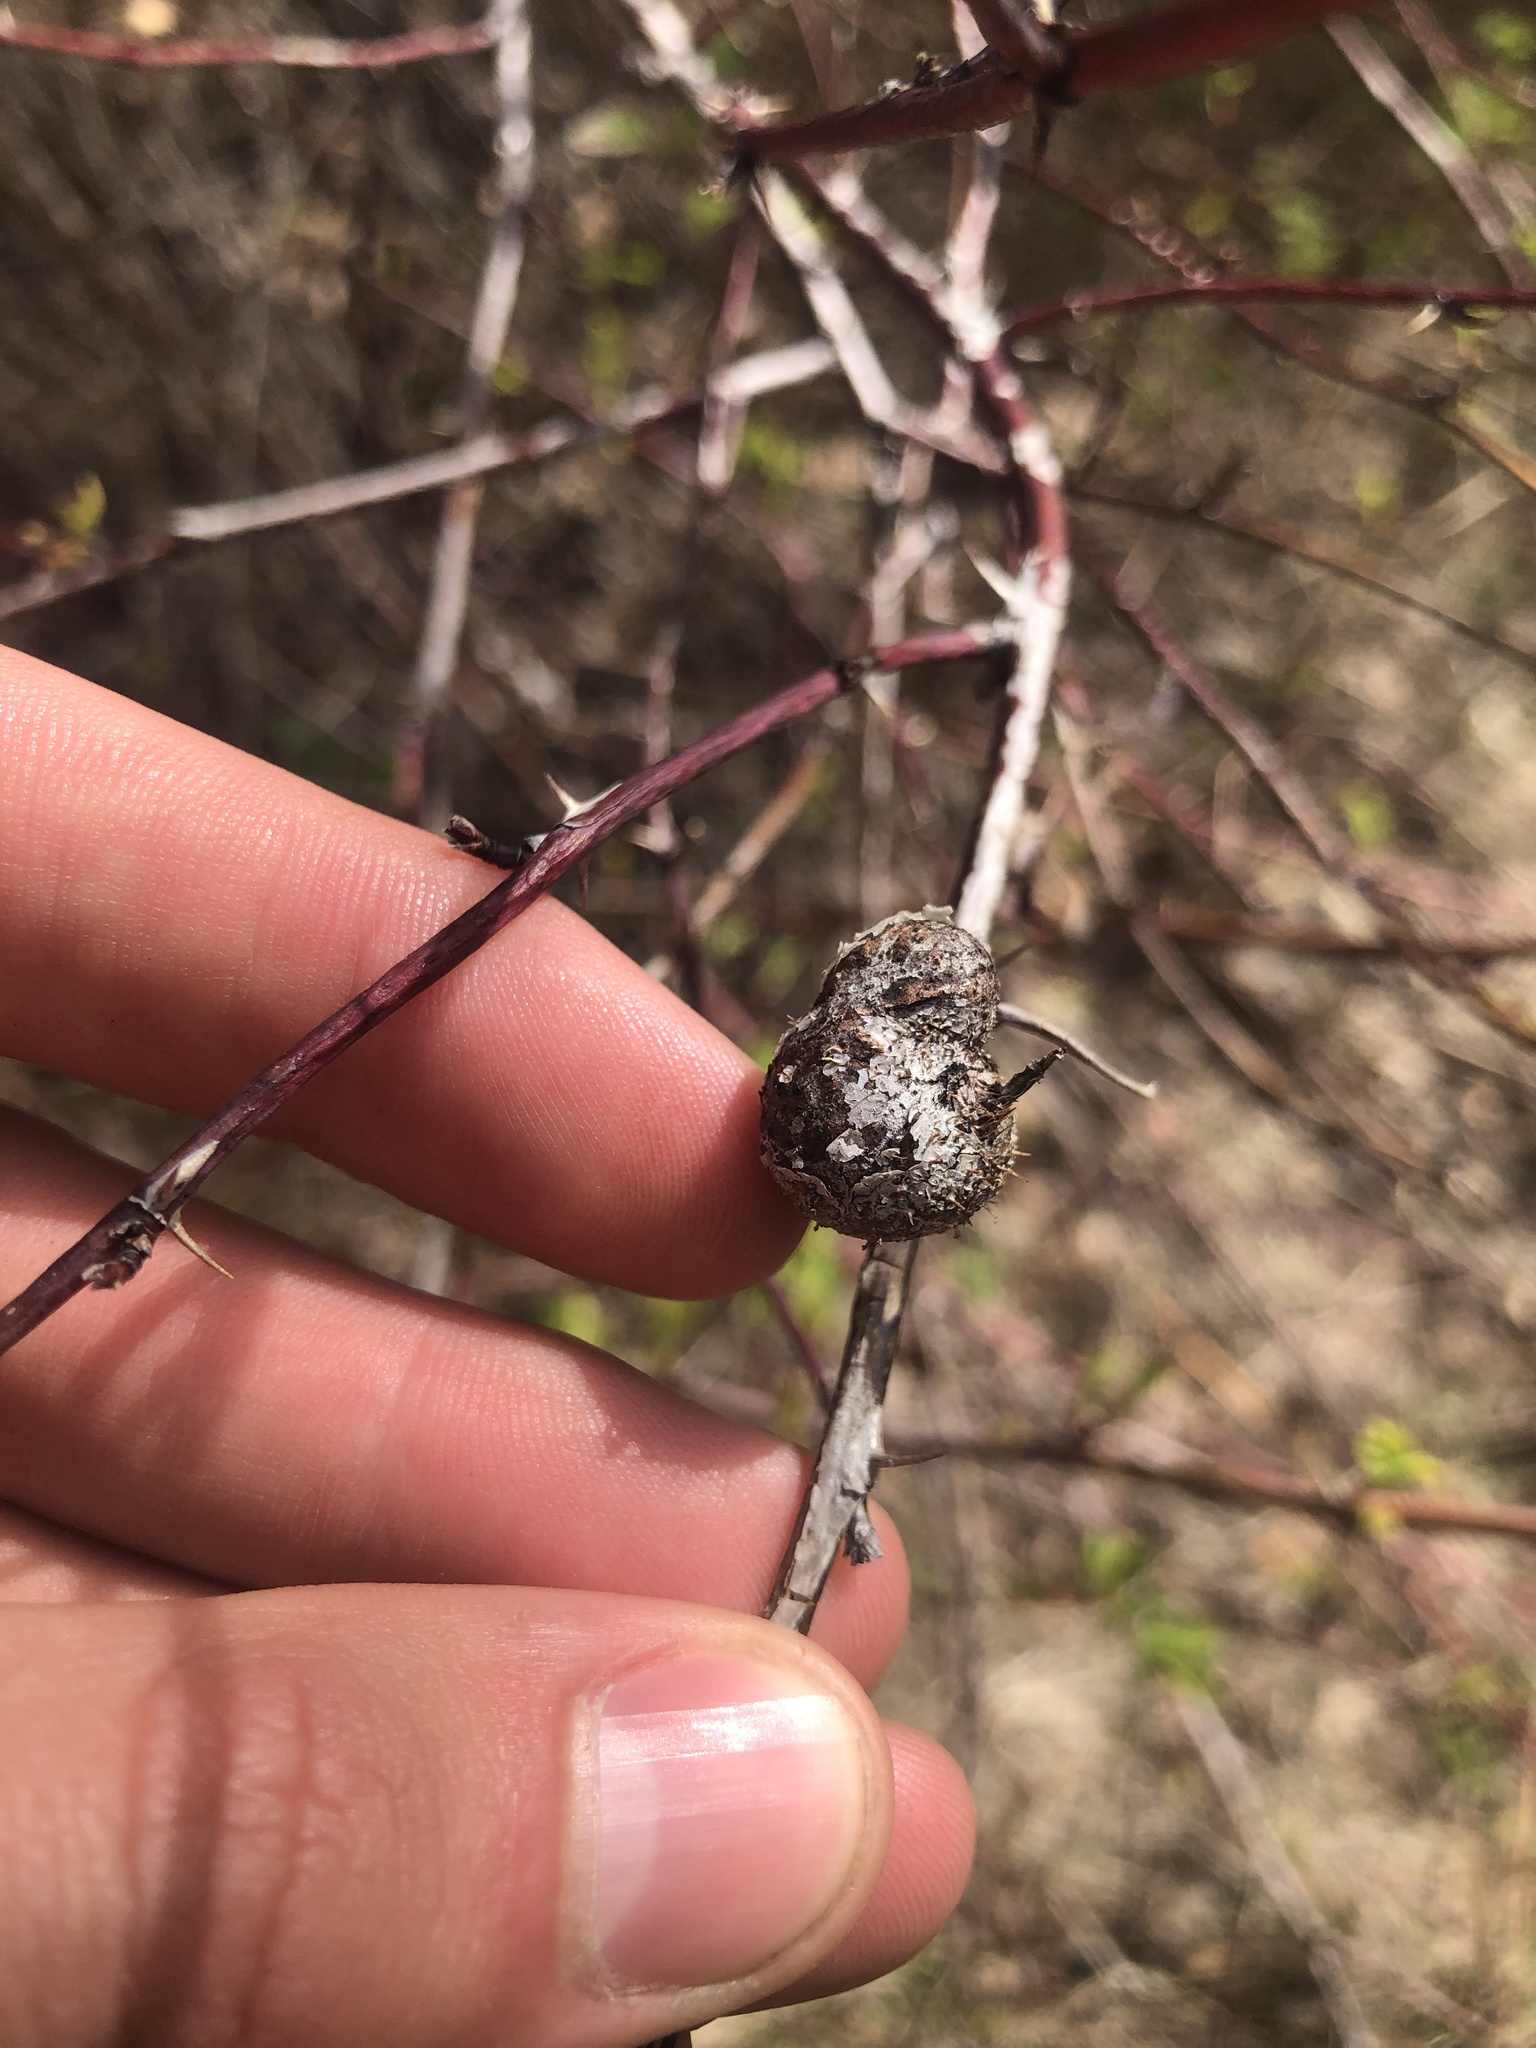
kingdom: Animalia
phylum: Arthropoda
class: Insecta
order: Hymenoptera
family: Cynipidae
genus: Diplolepis
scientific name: Diplolepis spinosa
